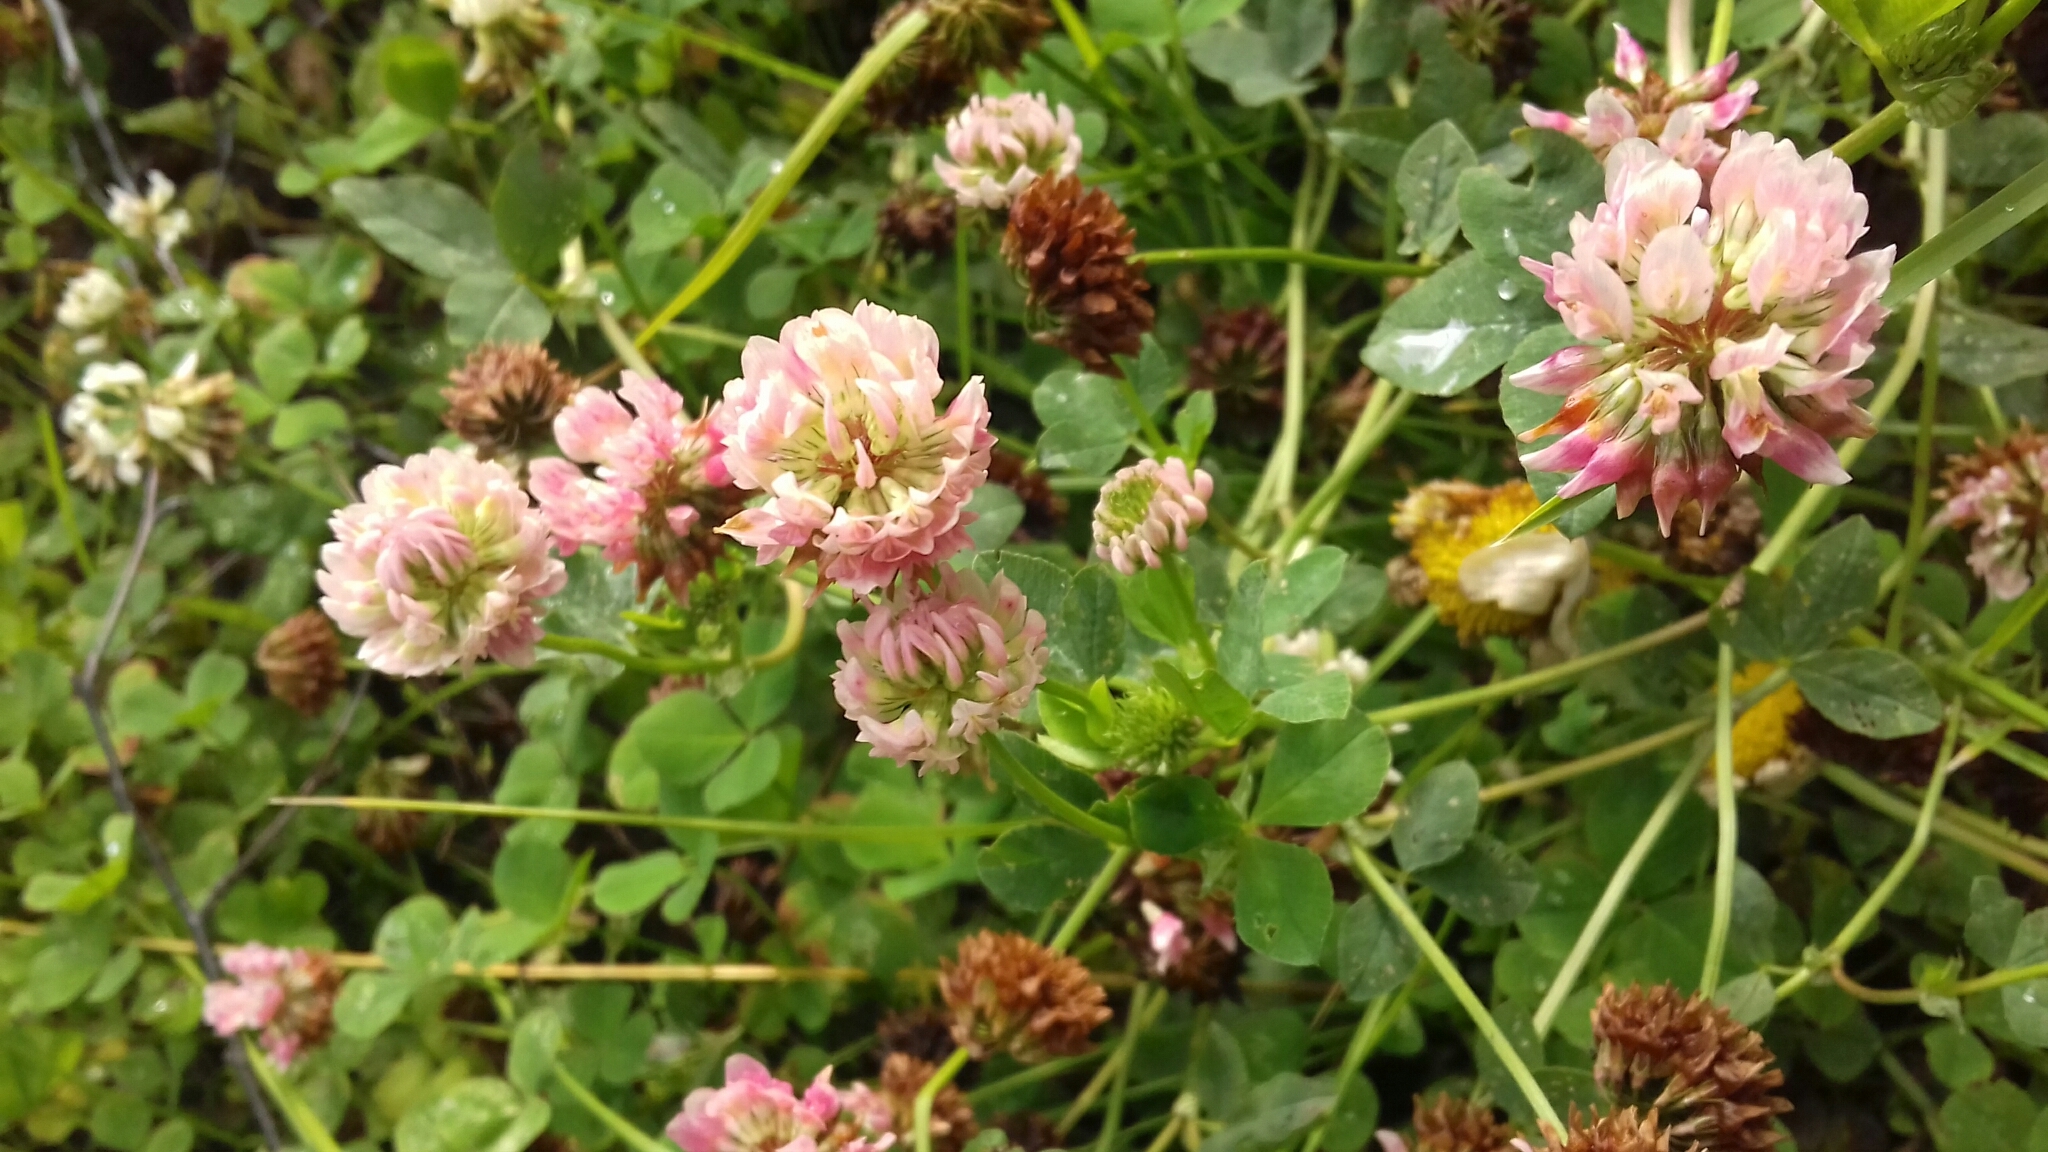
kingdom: Plantae
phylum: Tracheophyta
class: Magnoliopsida
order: Fabales
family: Fabaceae
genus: Trifolium
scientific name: Trifolium hybridum
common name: Alsike clover
